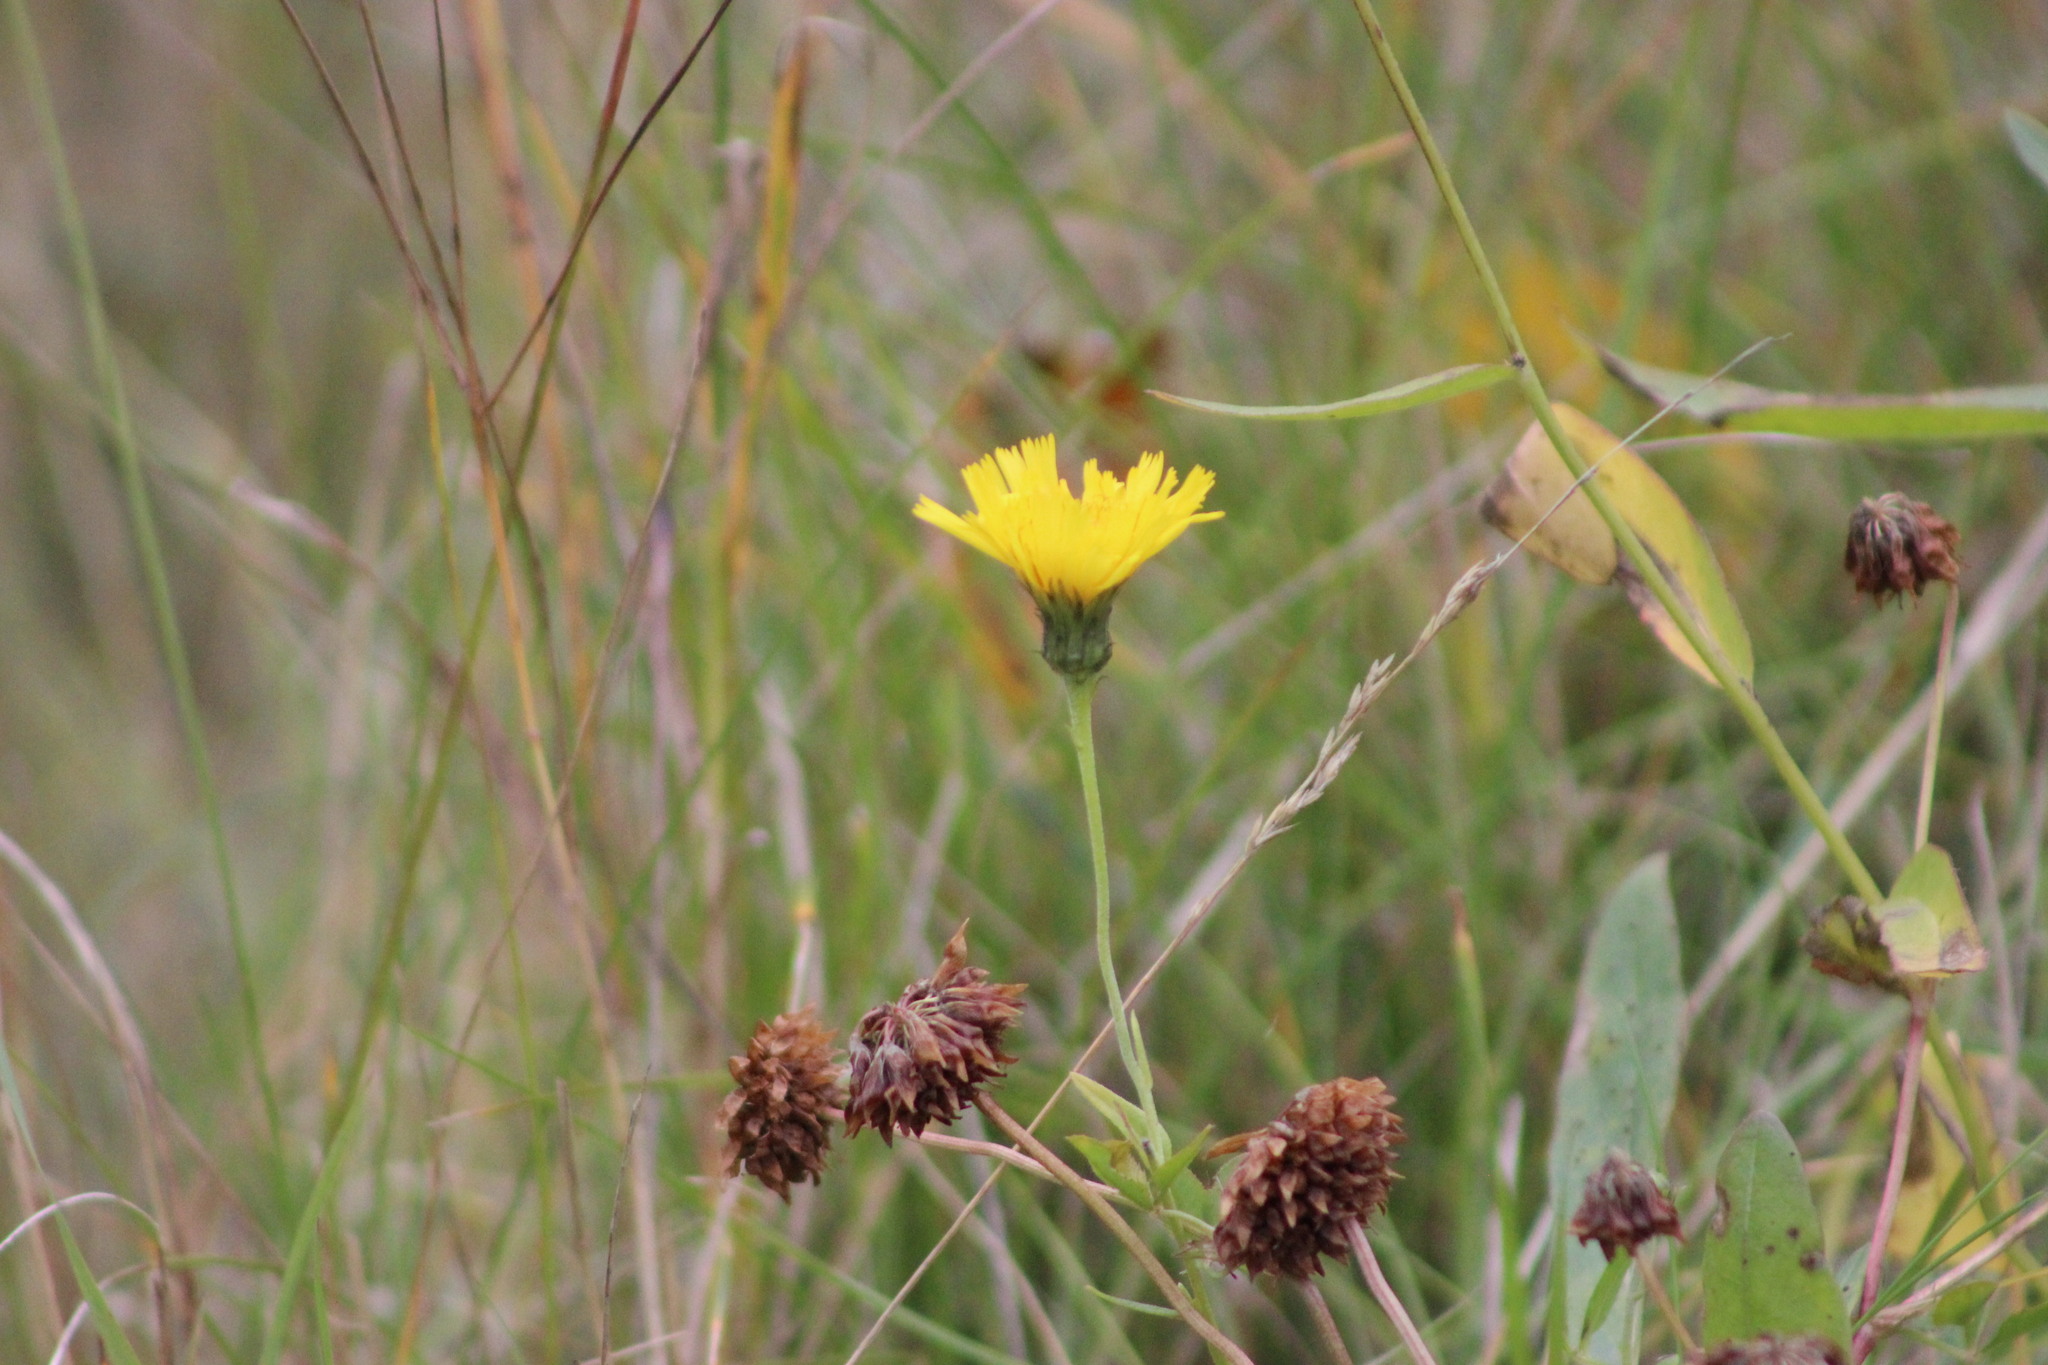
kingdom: Plantae
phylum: Tracheophyta
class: Magnoliopsida
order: Asterales
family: Asteraceae
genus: Hieracium
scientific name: Hieracium umbellatum
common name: Northern hawkweed
